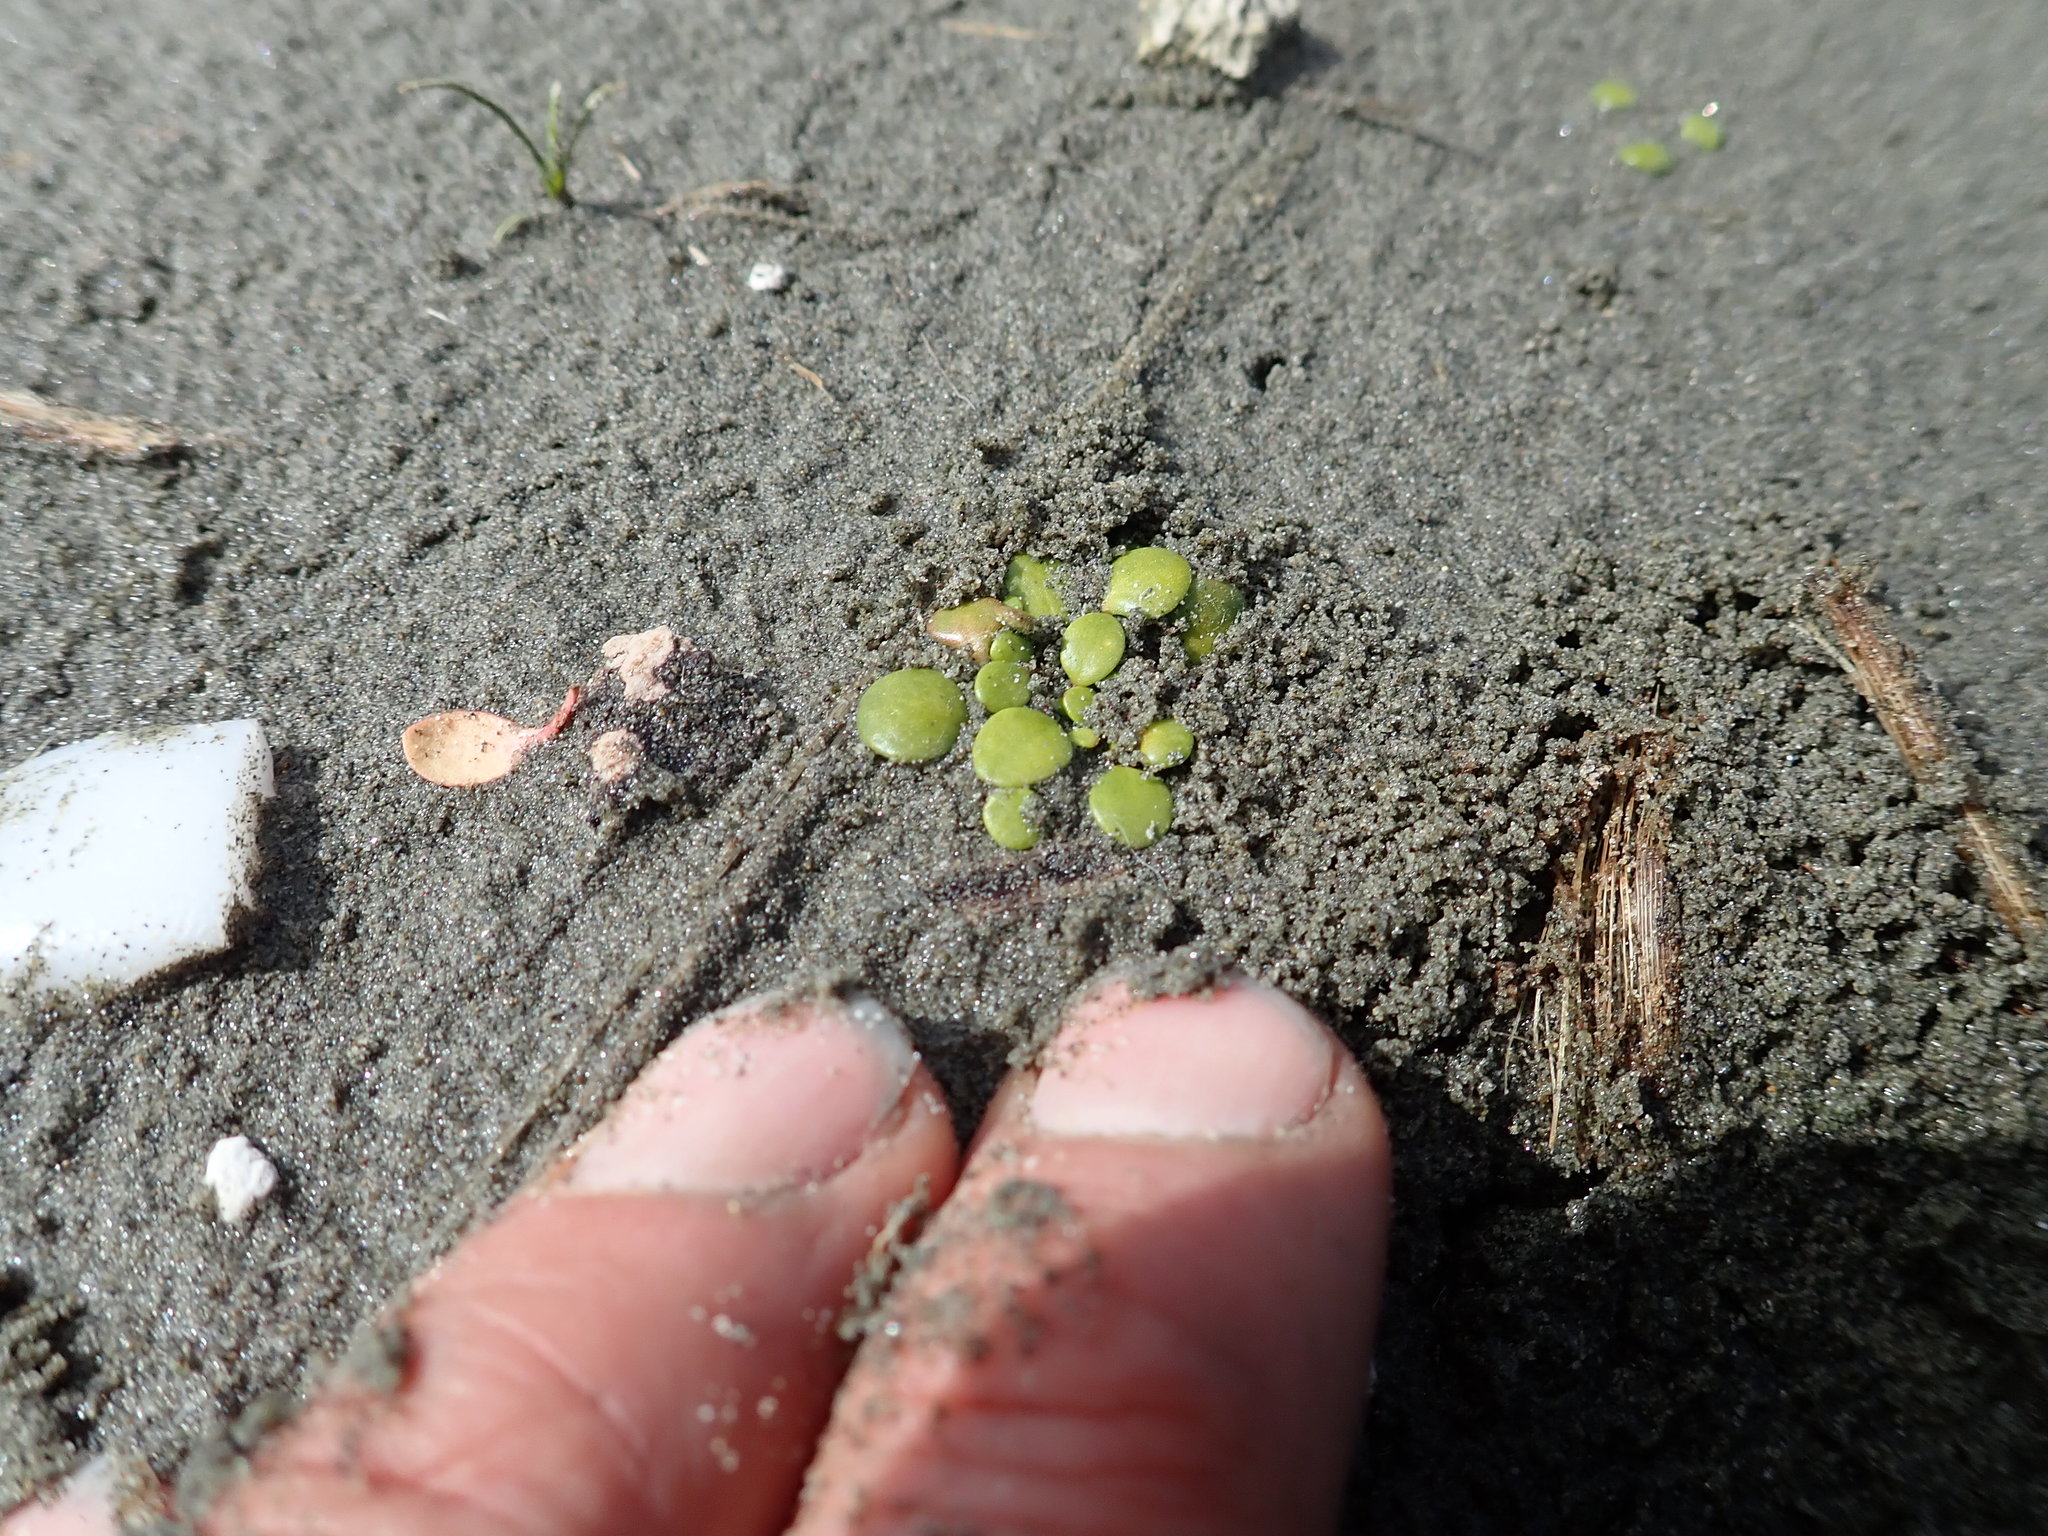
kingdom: Plantae
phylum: Tracheophyta
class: Magnoliopsida
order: Asterales
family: Goodeniaceae
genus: Goodenia
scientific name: Goodenia heenanii
